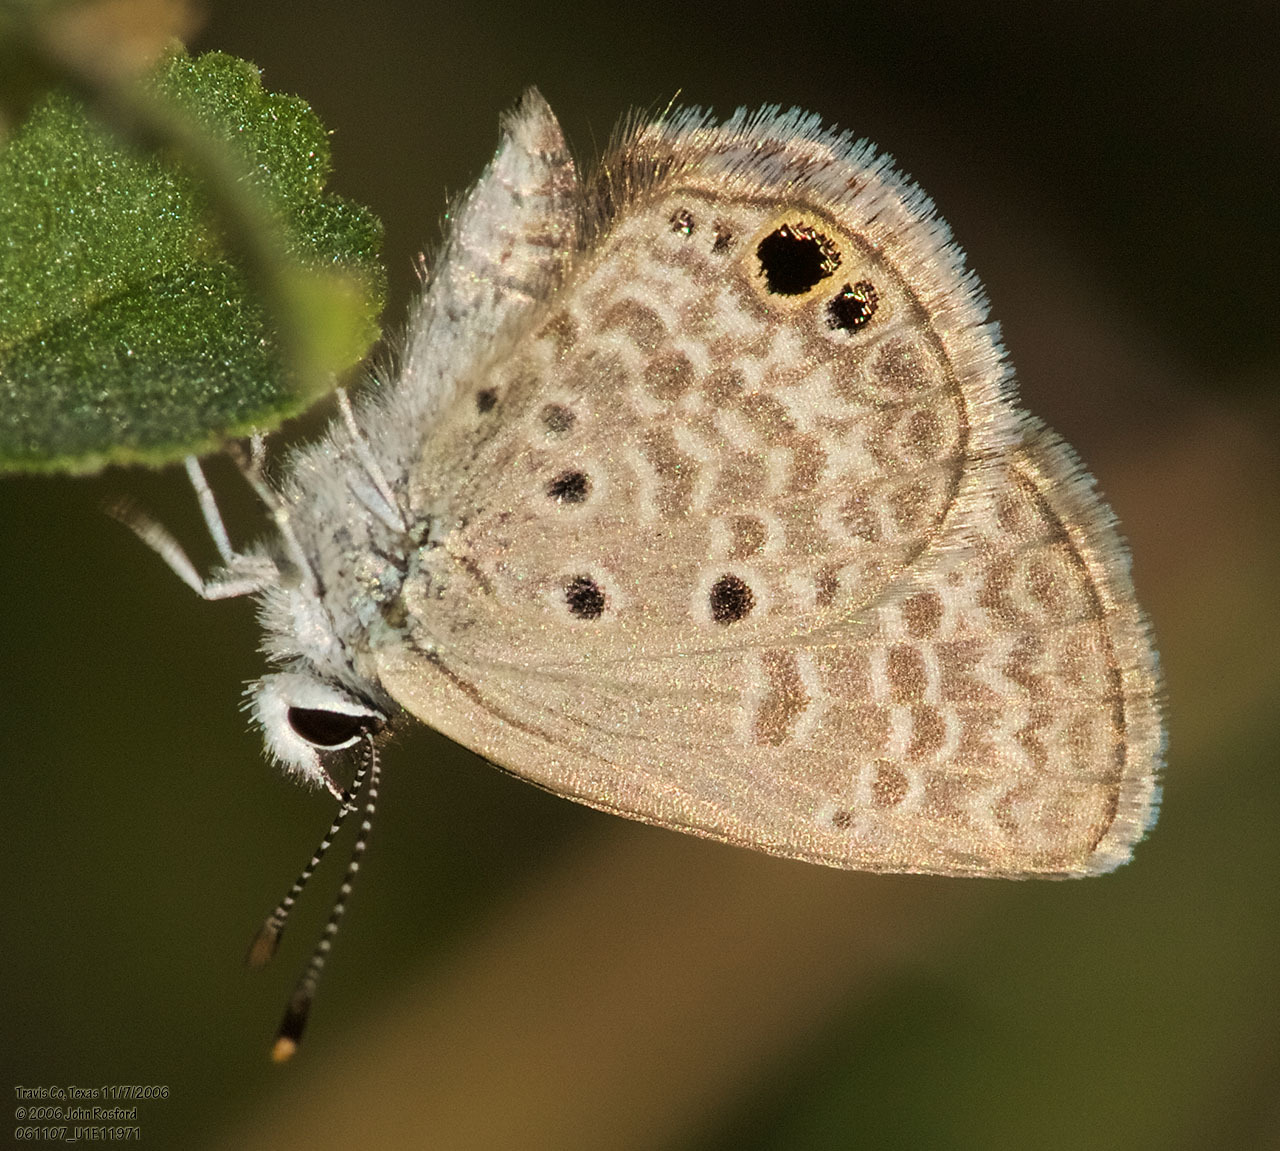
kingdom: Animalia
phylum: Arthropoda
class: Insecta
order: Lepidoptera
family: Lycaenidae
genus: Hemiargus
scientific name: Hemiargus ceraunus
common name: Ceraunus blue
